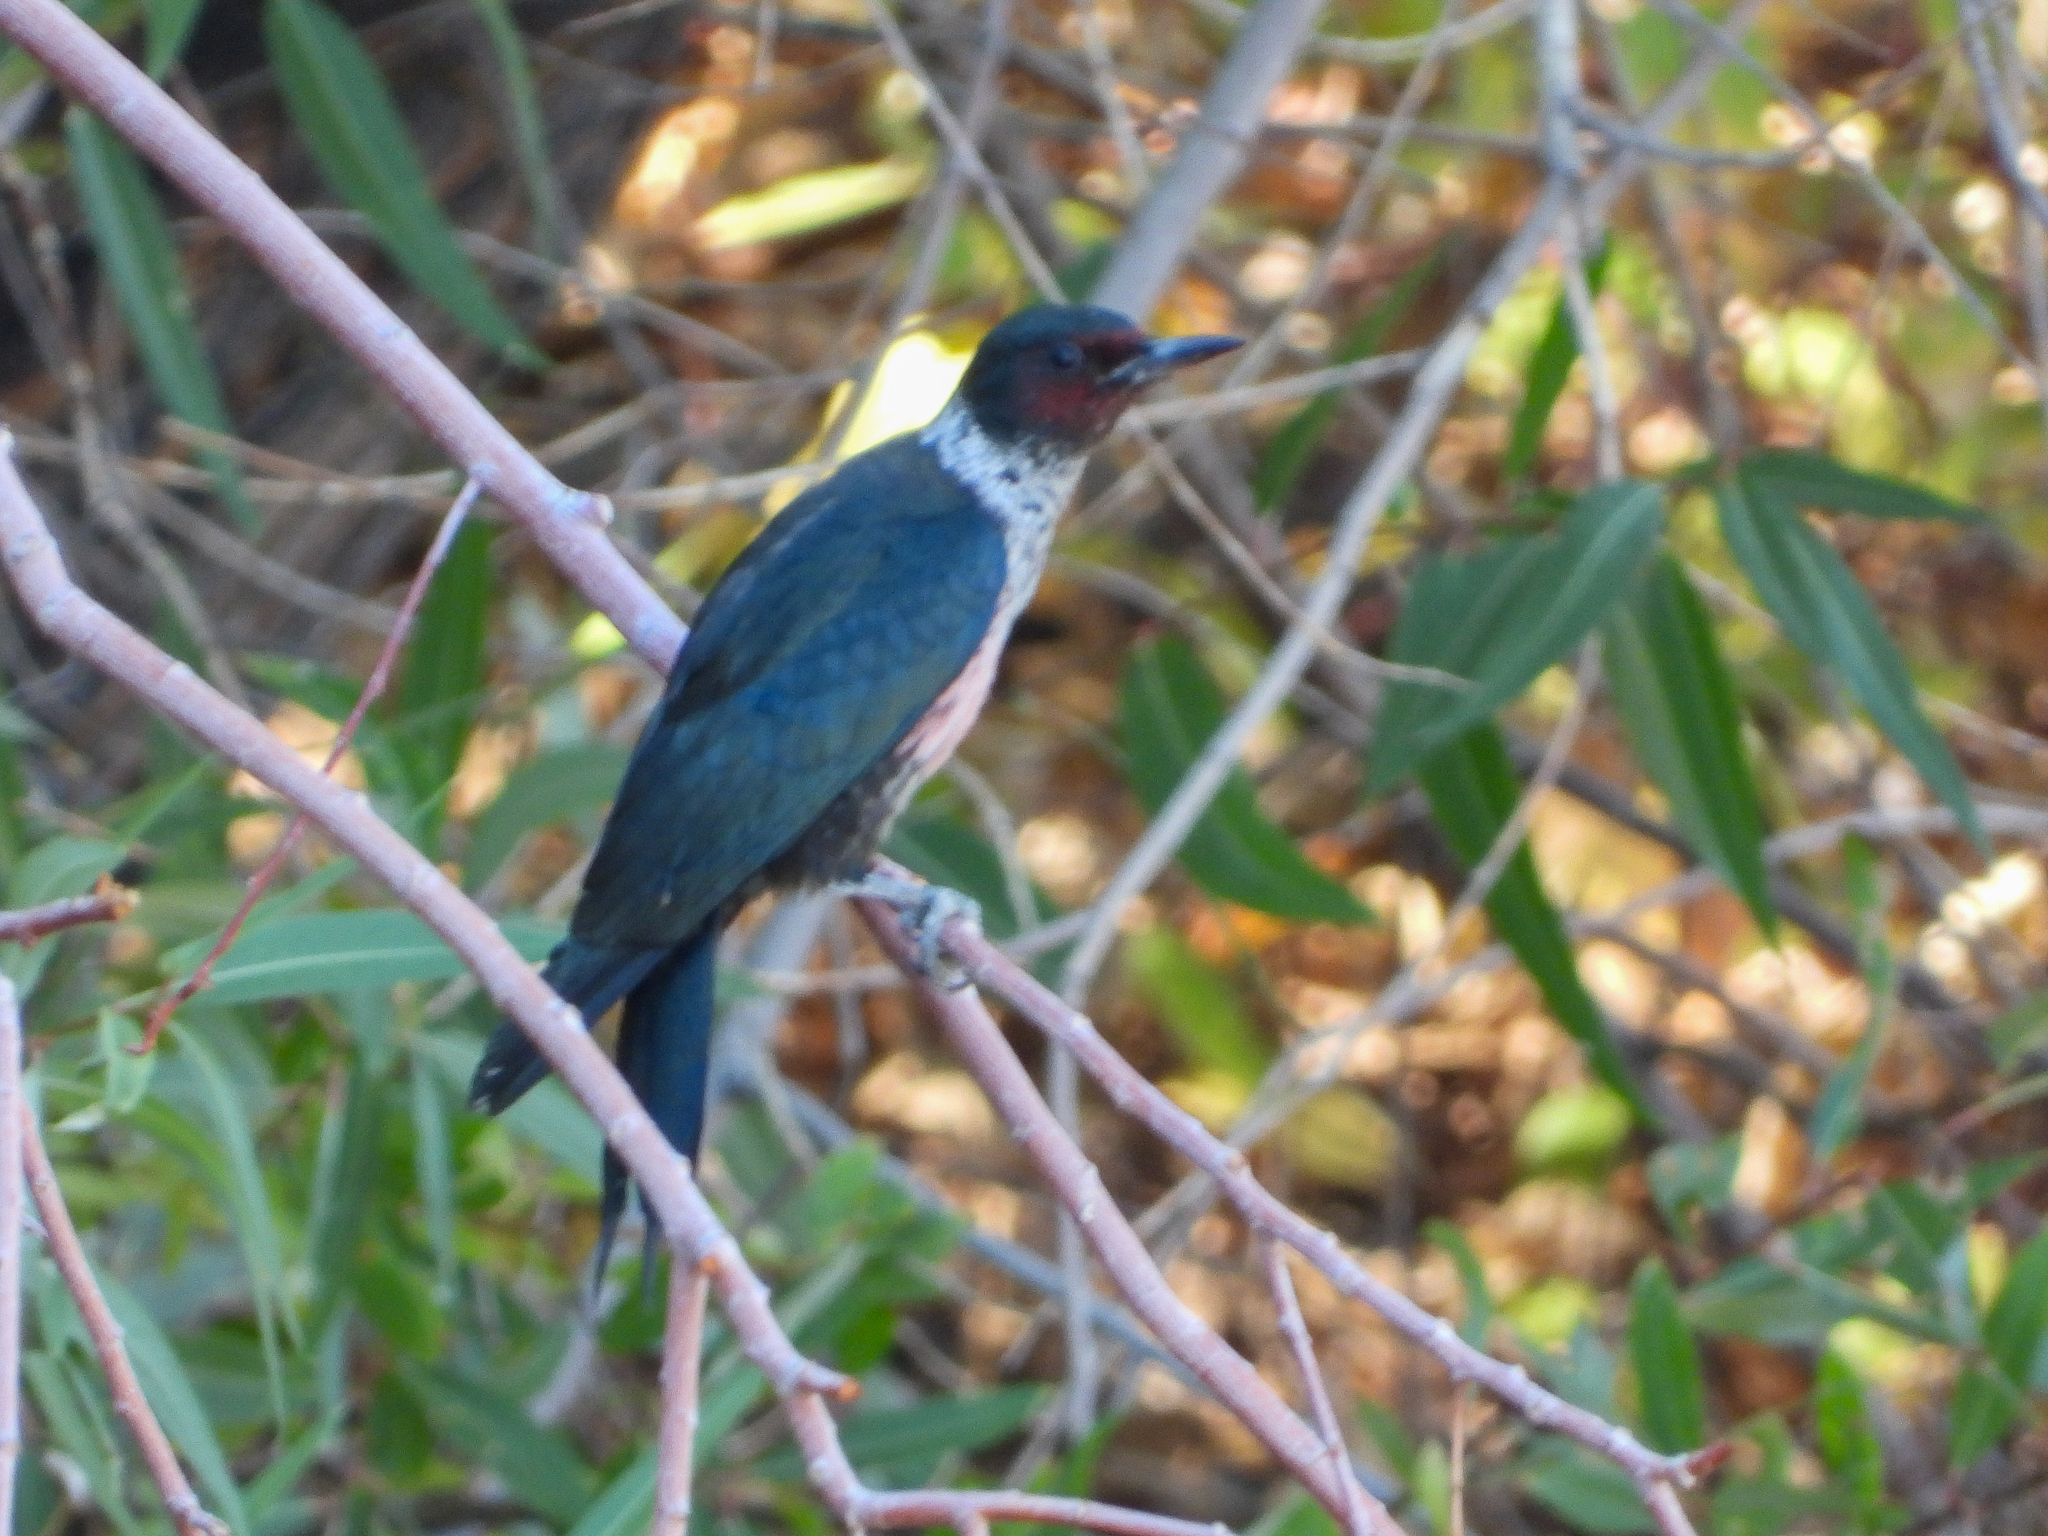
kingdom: Animalia
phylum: Chordata
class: Aves
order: Piciformes
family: Picidae
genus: Melanerpes
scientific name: Melanerpes lewis
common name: Lewis's woodpecker
